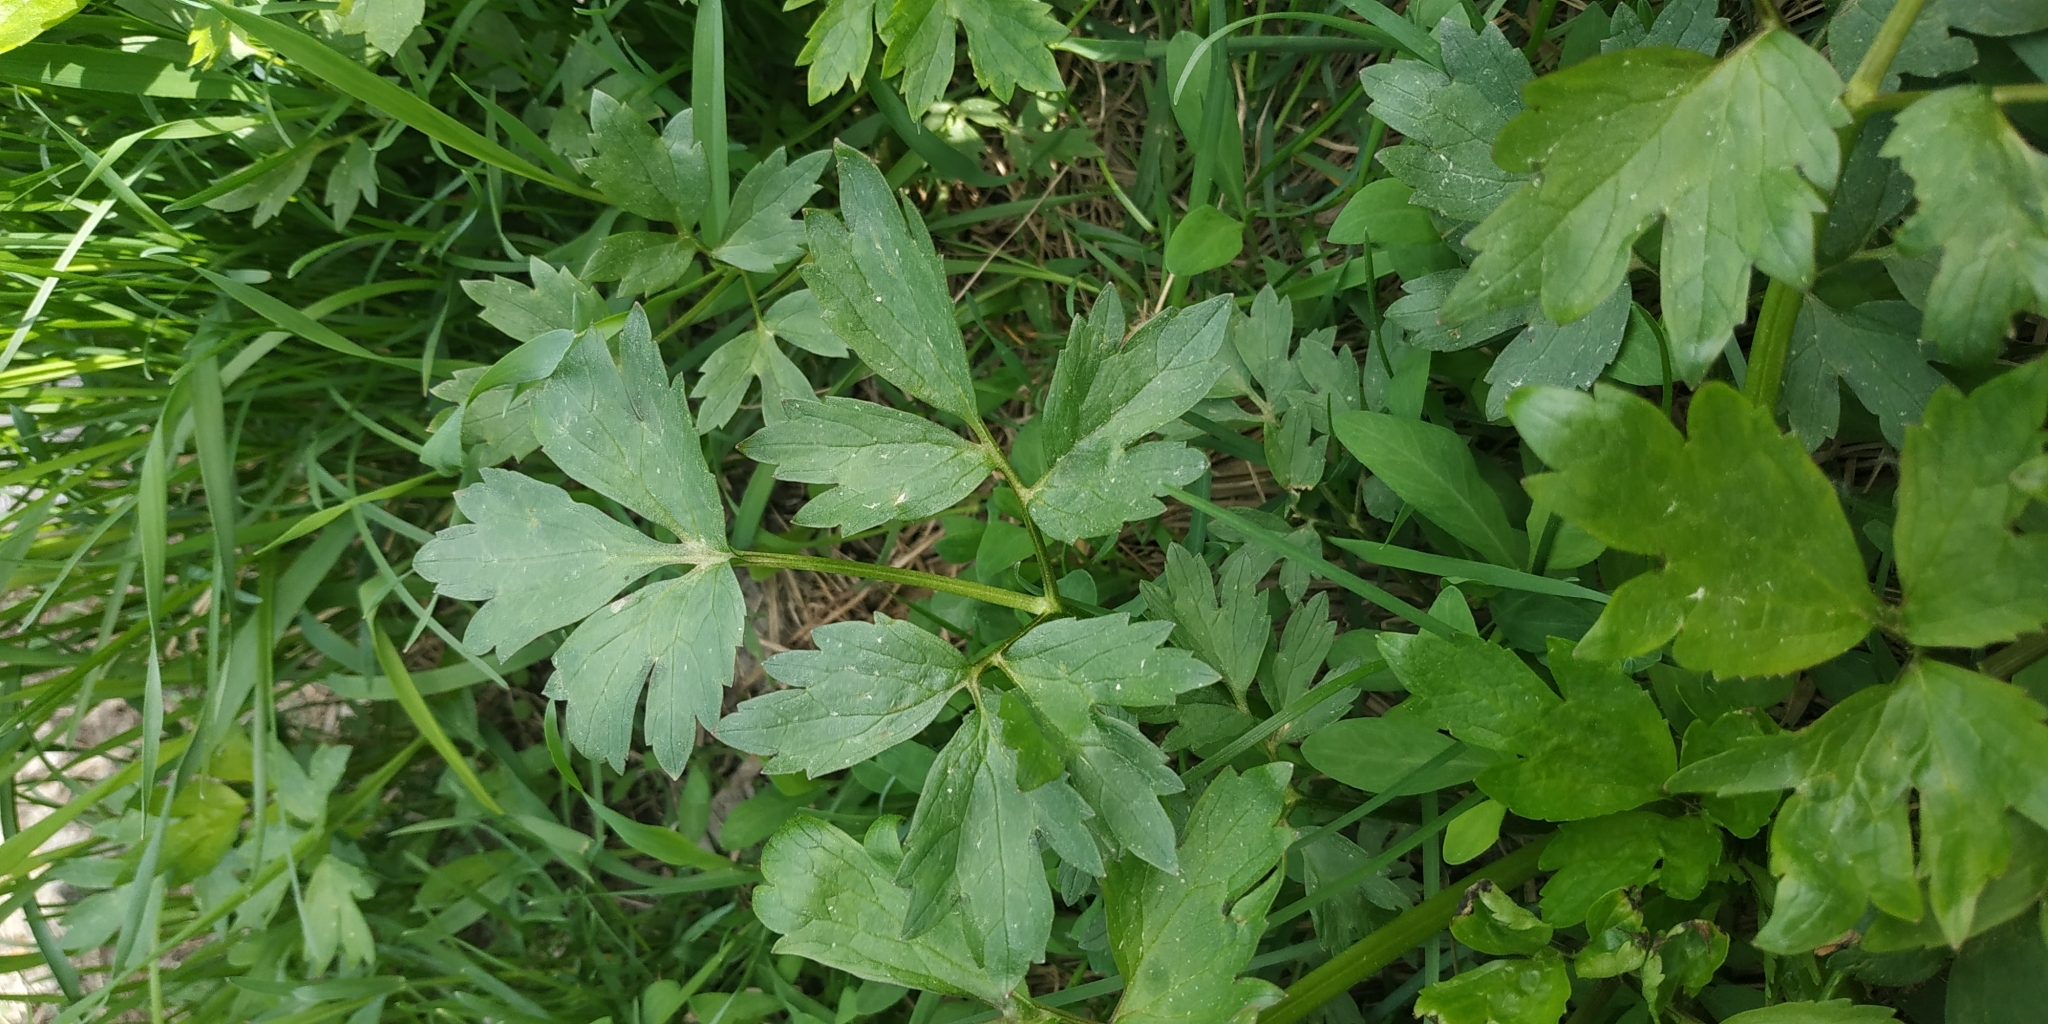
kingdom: Plantae
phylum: Tracheophyta
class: Magnoliopsida
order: Ranunculales
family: Ranunculaceae
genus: Ranunculus
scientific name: Ranunculus repens
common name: Creeping buttercup
